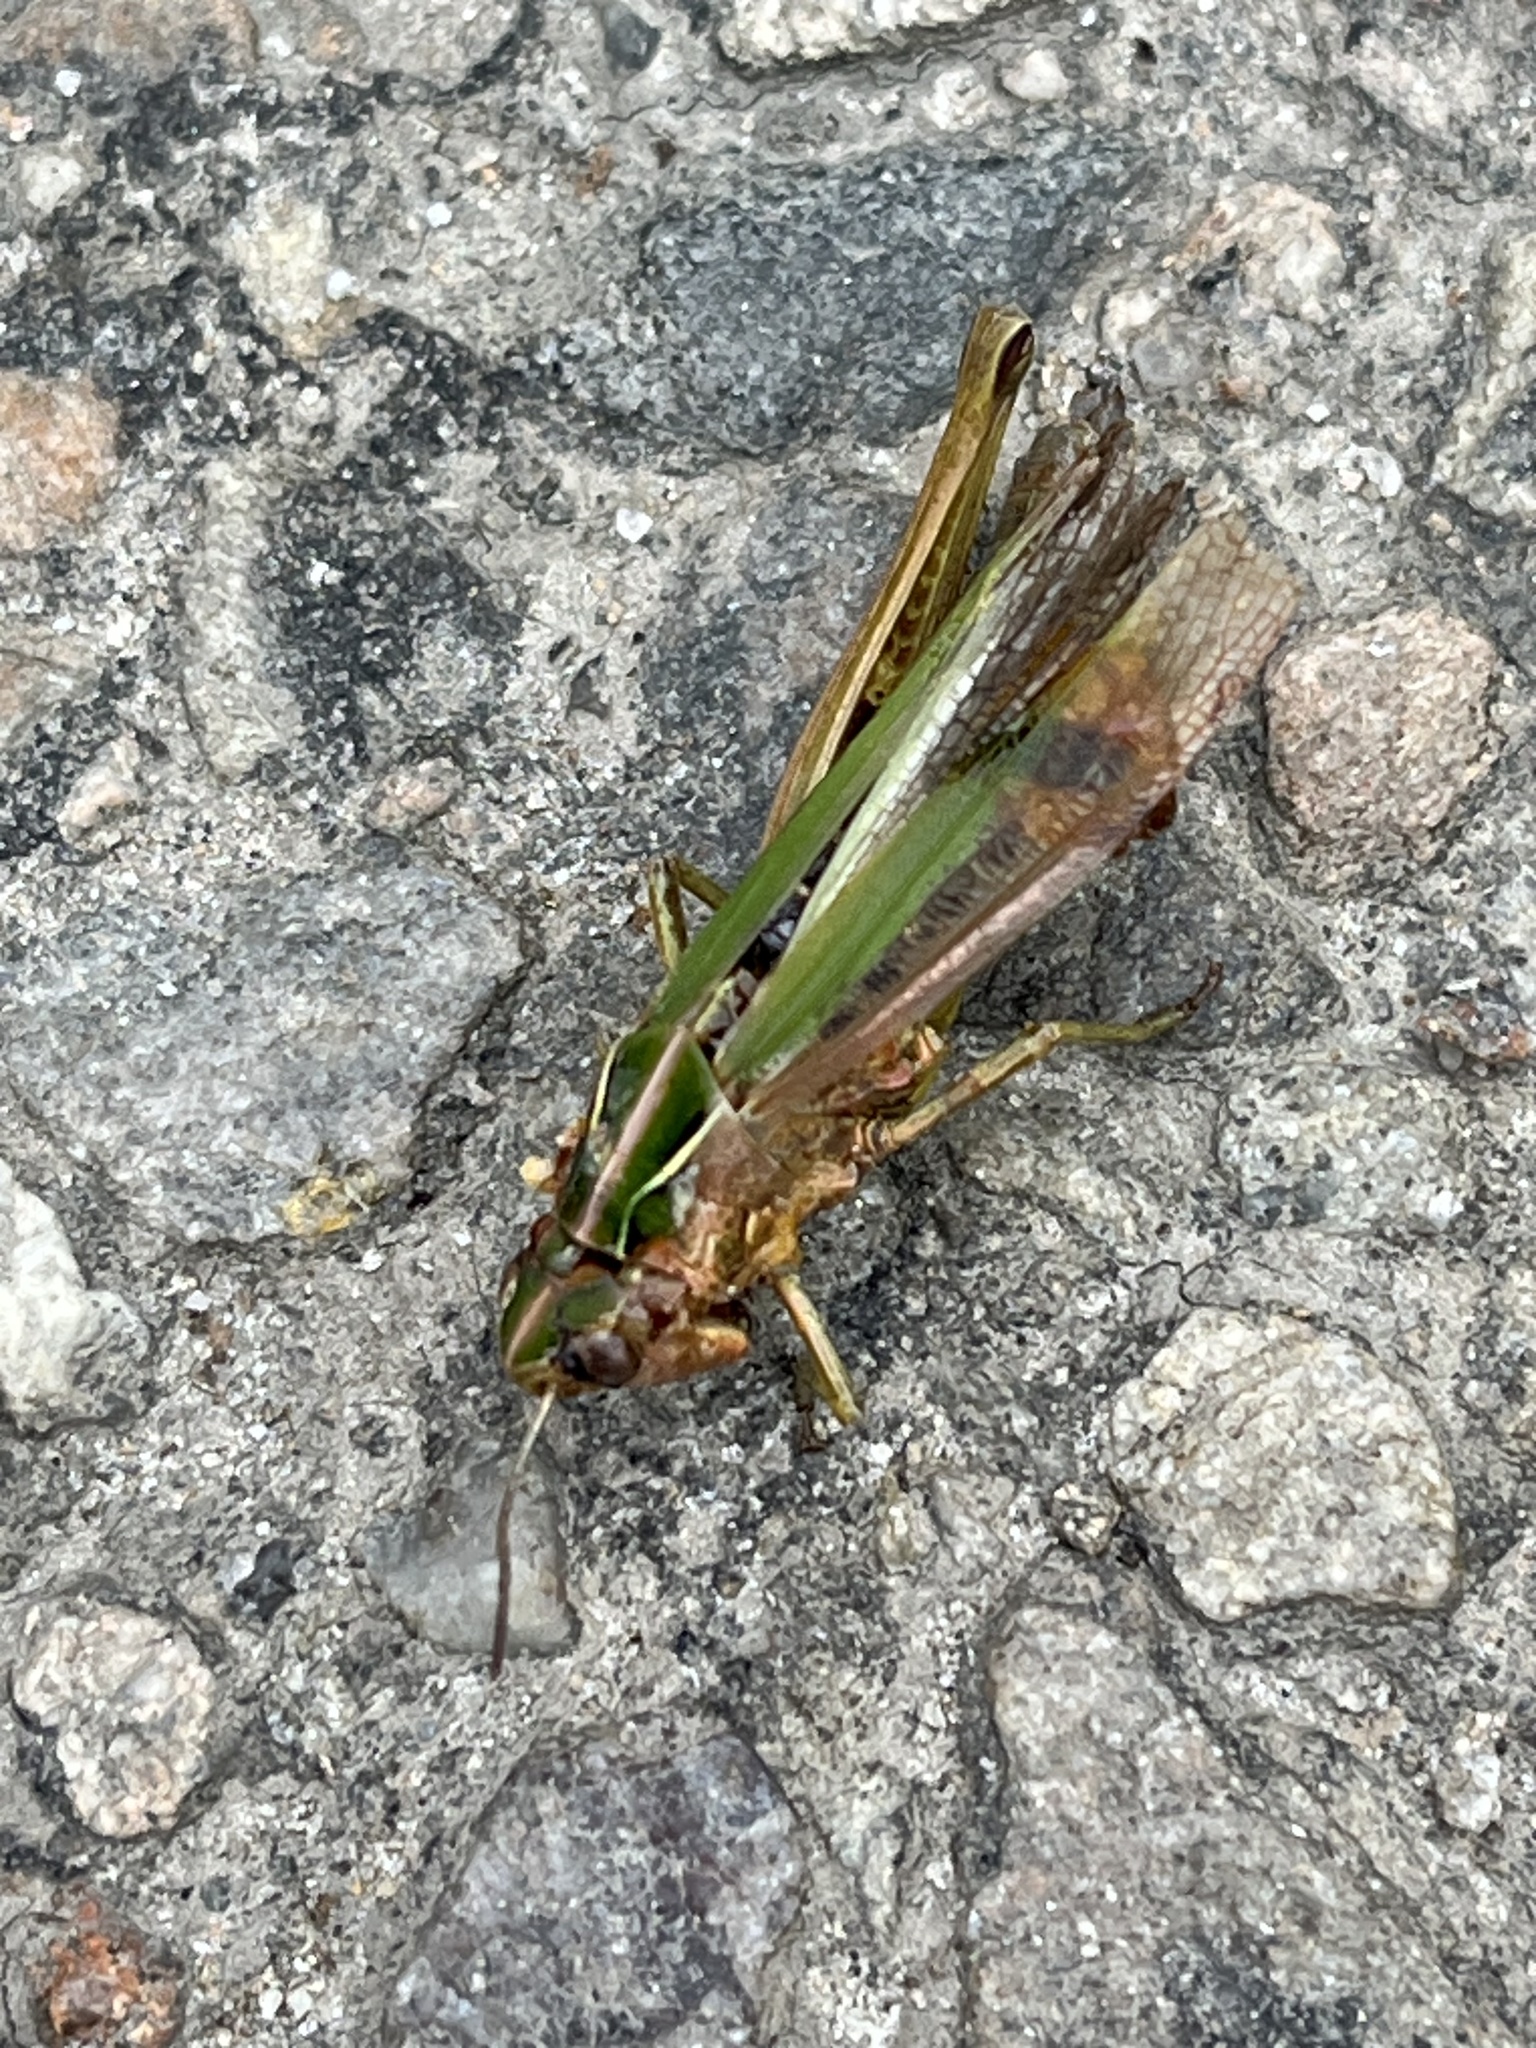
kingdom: Animalia
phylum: Arthropoda
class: Insecta
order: Orthoptera
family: Acrididae
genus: Omocestus
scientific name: Omocestus viridulus
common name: Common green grasshopper
